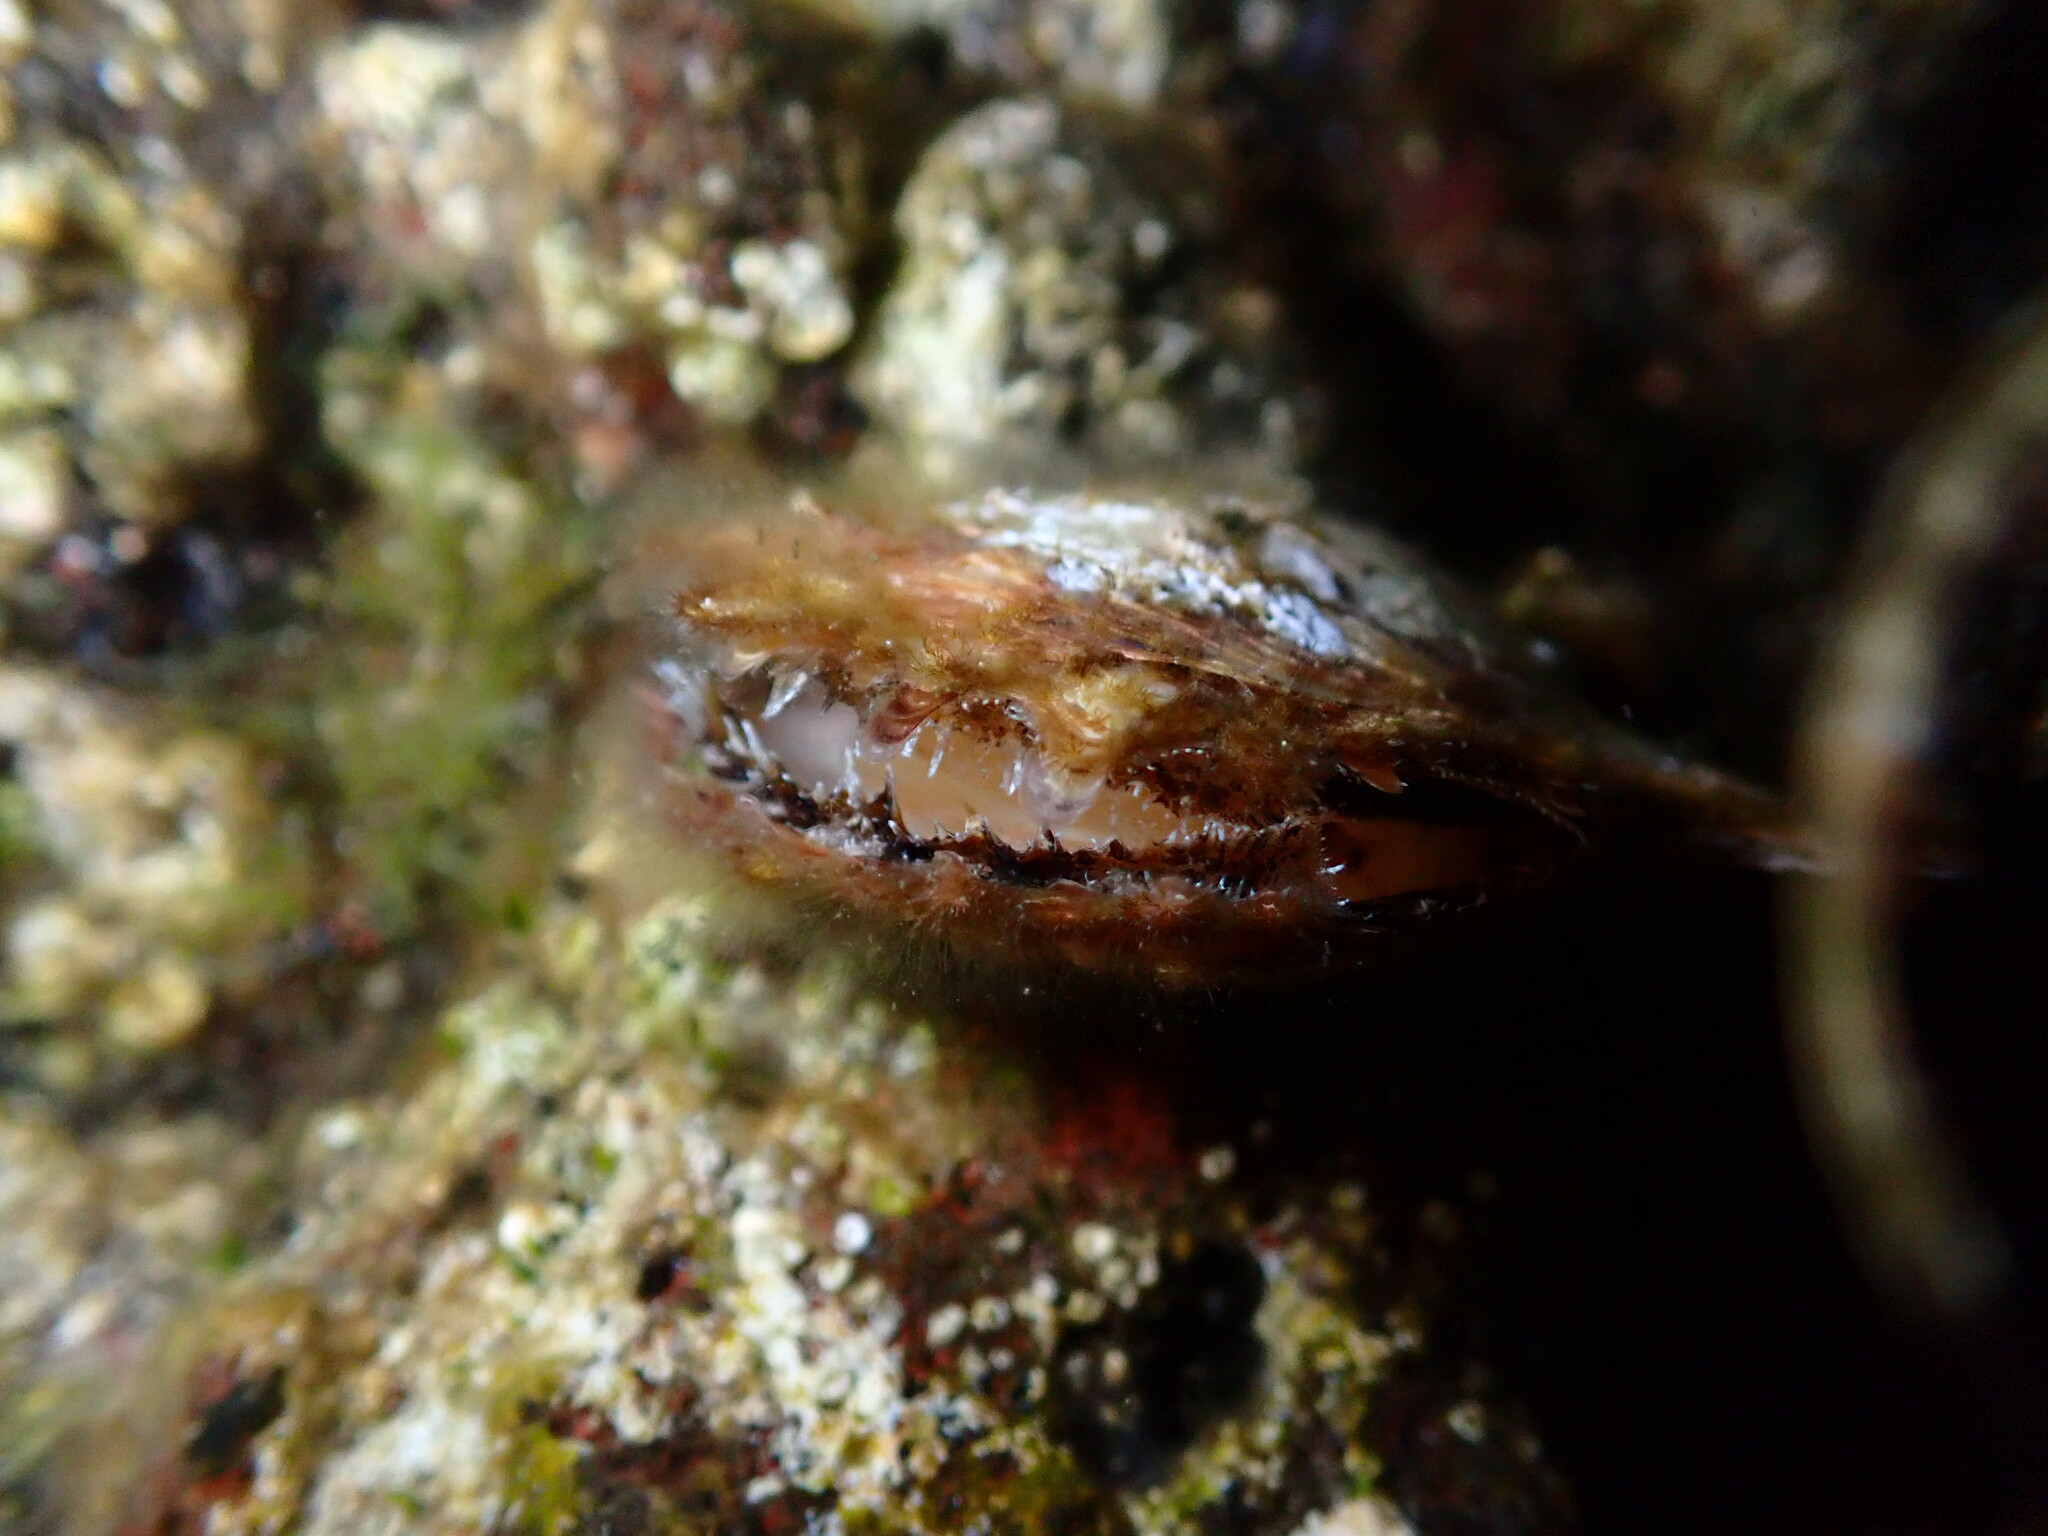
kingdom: Animalia
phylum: Mollusca
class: Bivalvia
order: Ostreida
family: Margaritidae
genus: Pinctada
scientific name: Pinctada imbricata
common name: Atlantic pearl-oyster
